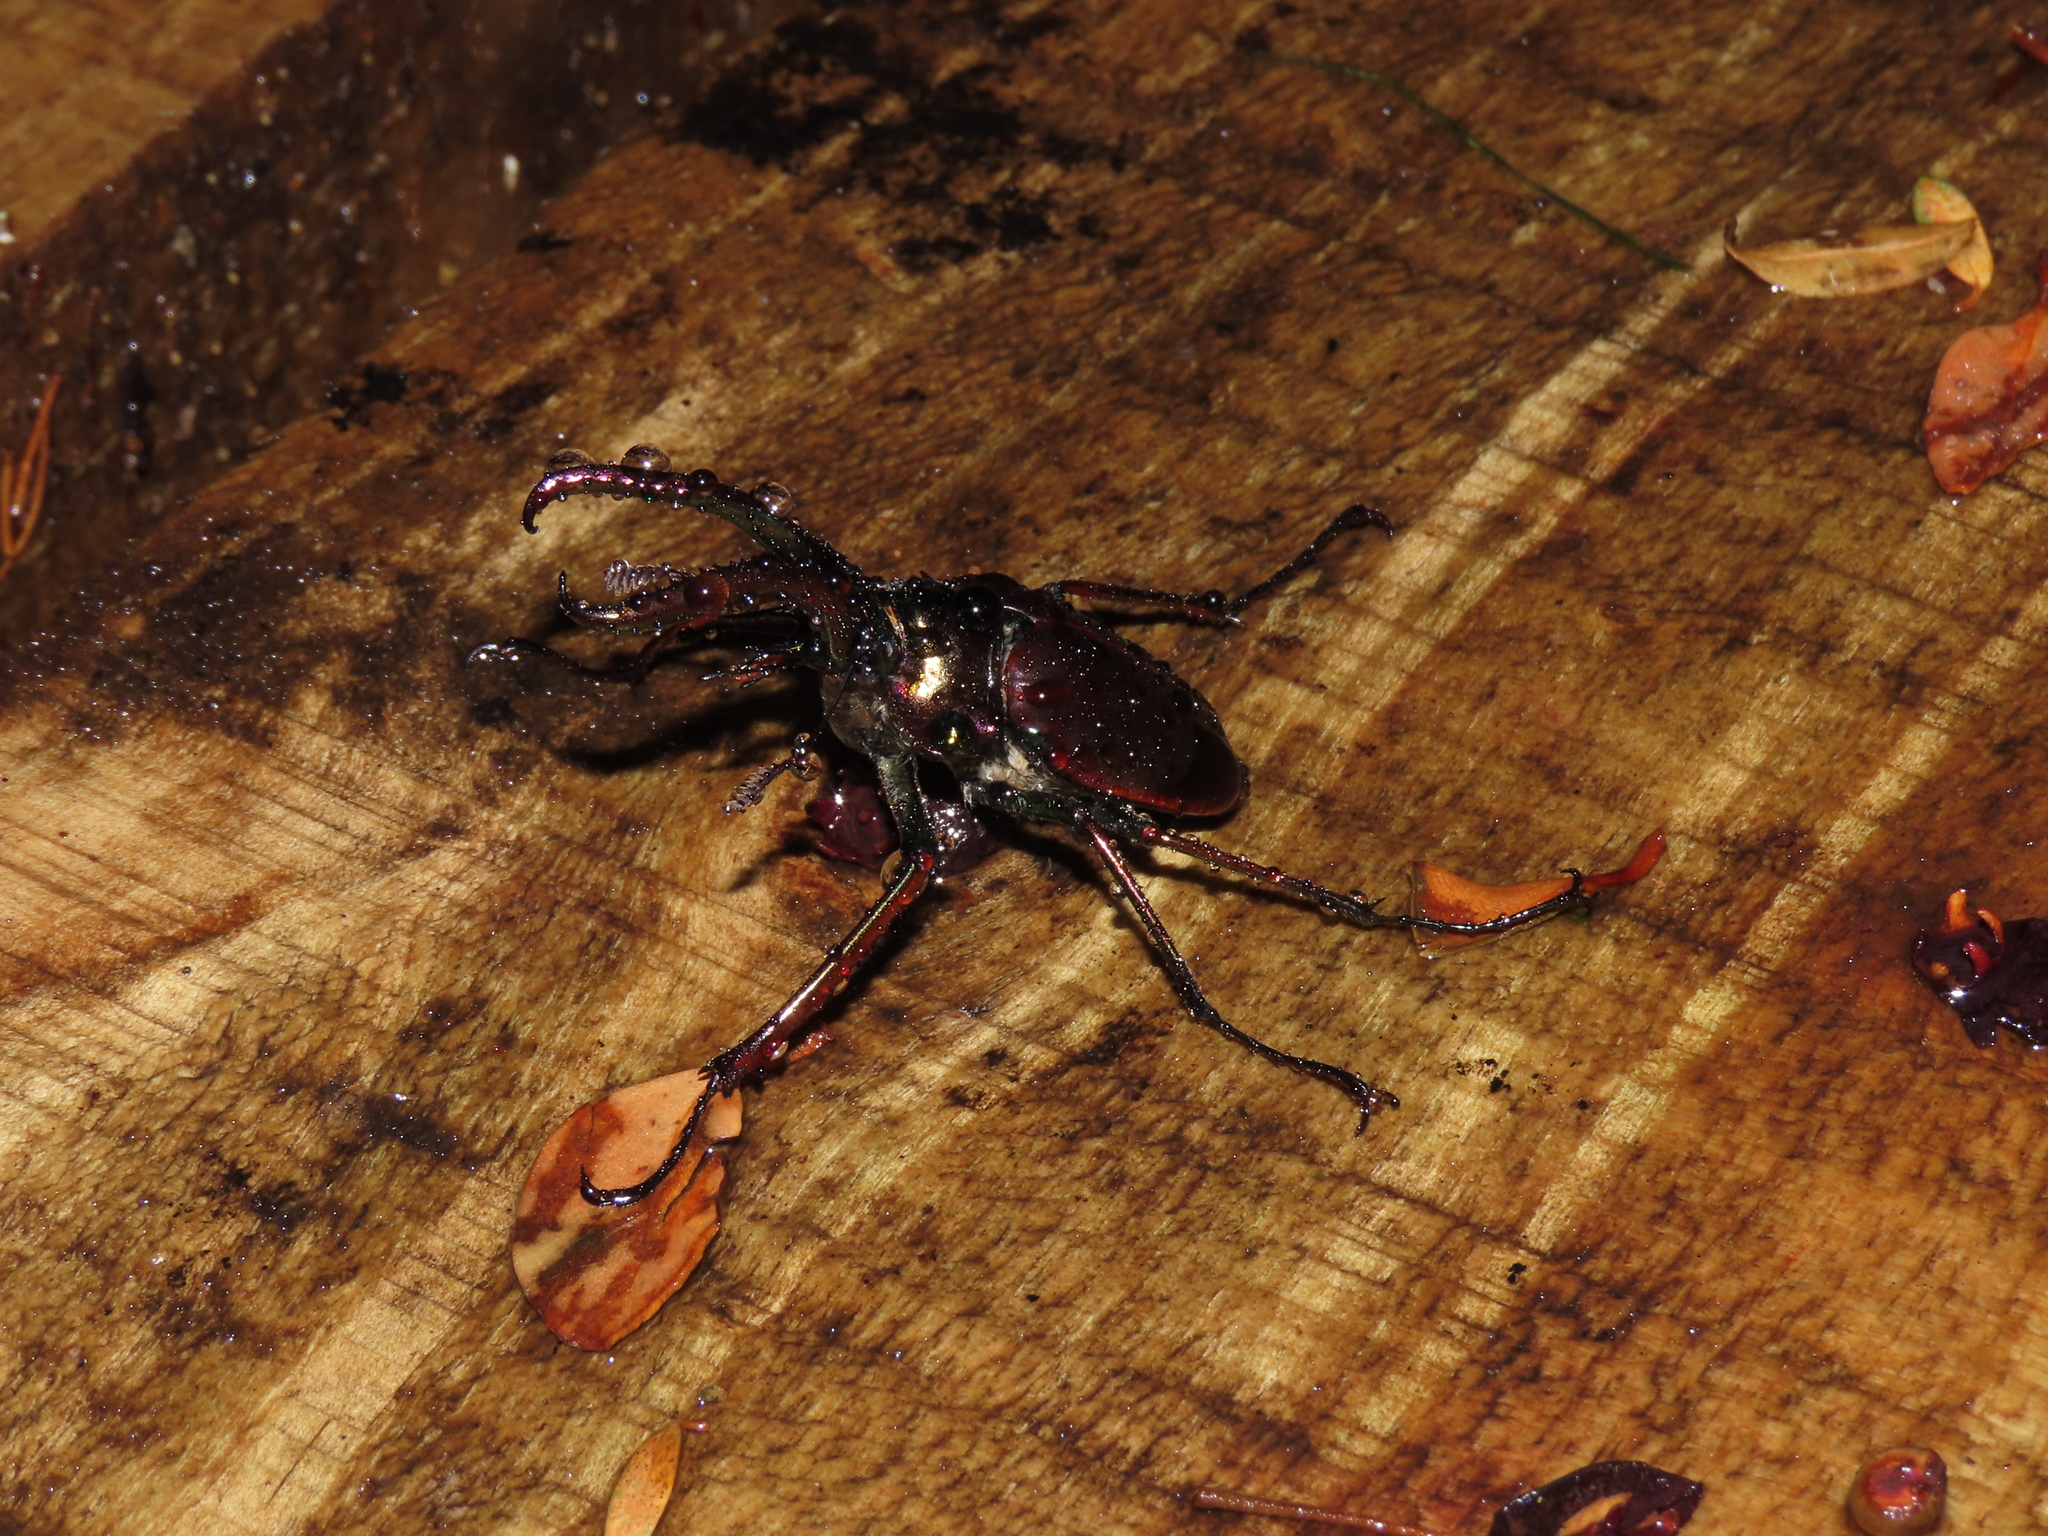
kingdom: Animalia
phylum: Arthropoda
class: Insecta
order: Coleoptera
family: Lucanidae
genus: Chiasognathus
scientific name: Chiasognathus grantii
